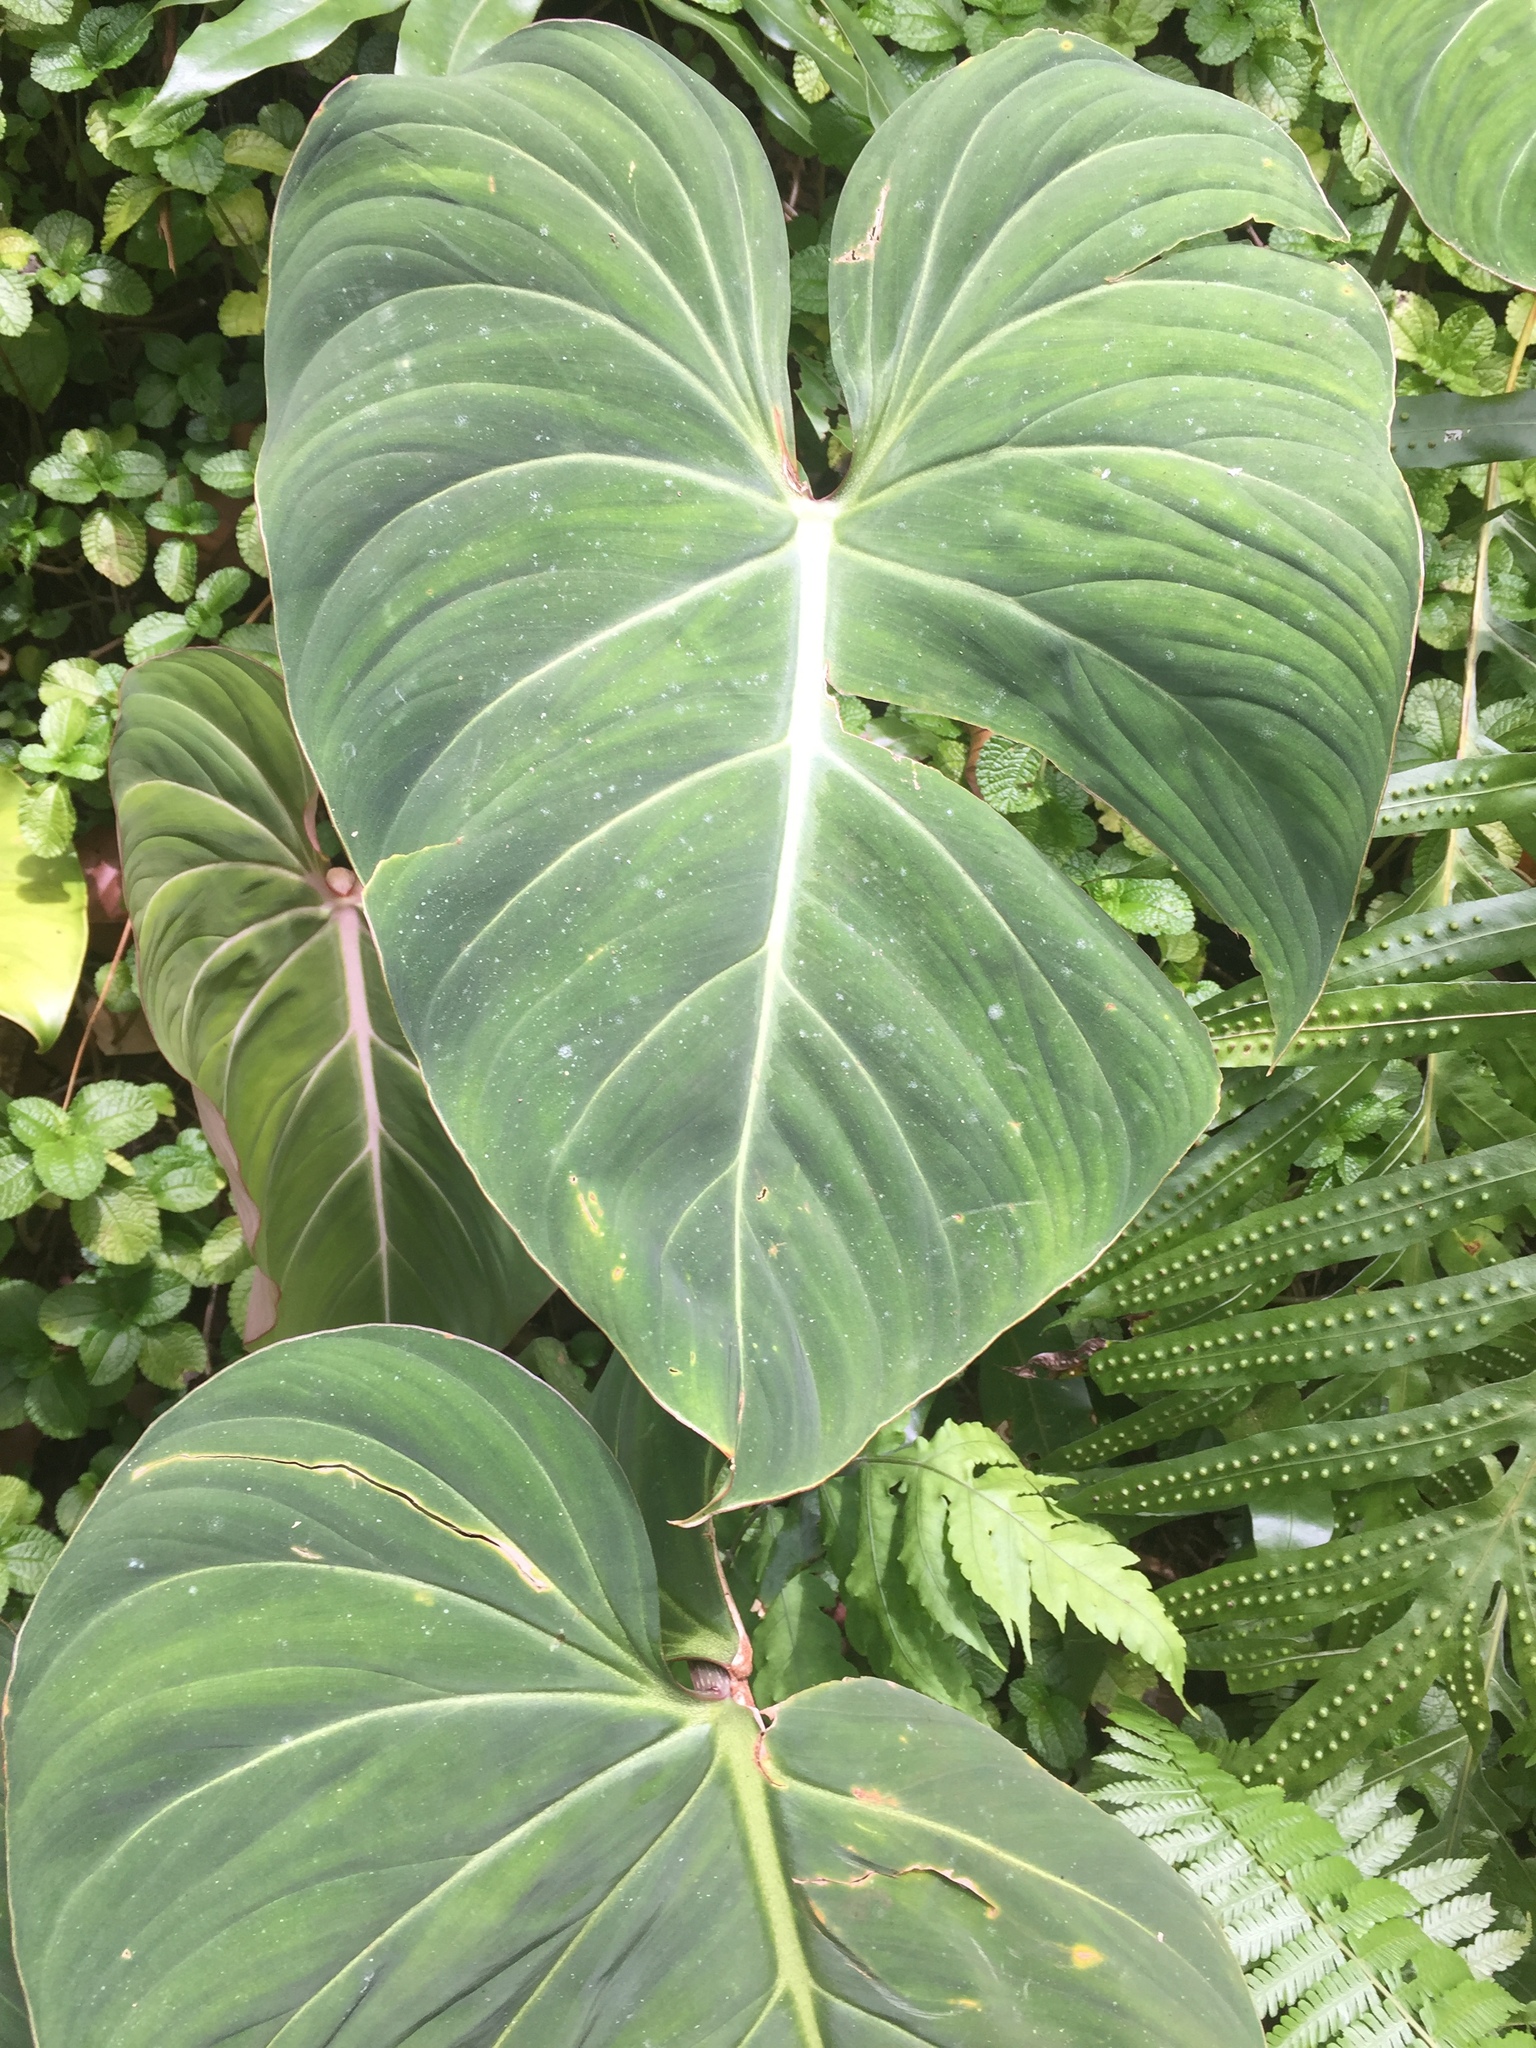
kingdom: Plantae
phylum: Tracheophyta
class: Liliopsida
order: Alismatales
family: Araceae
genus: Philodendron
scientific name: Philodendron gloriosum
